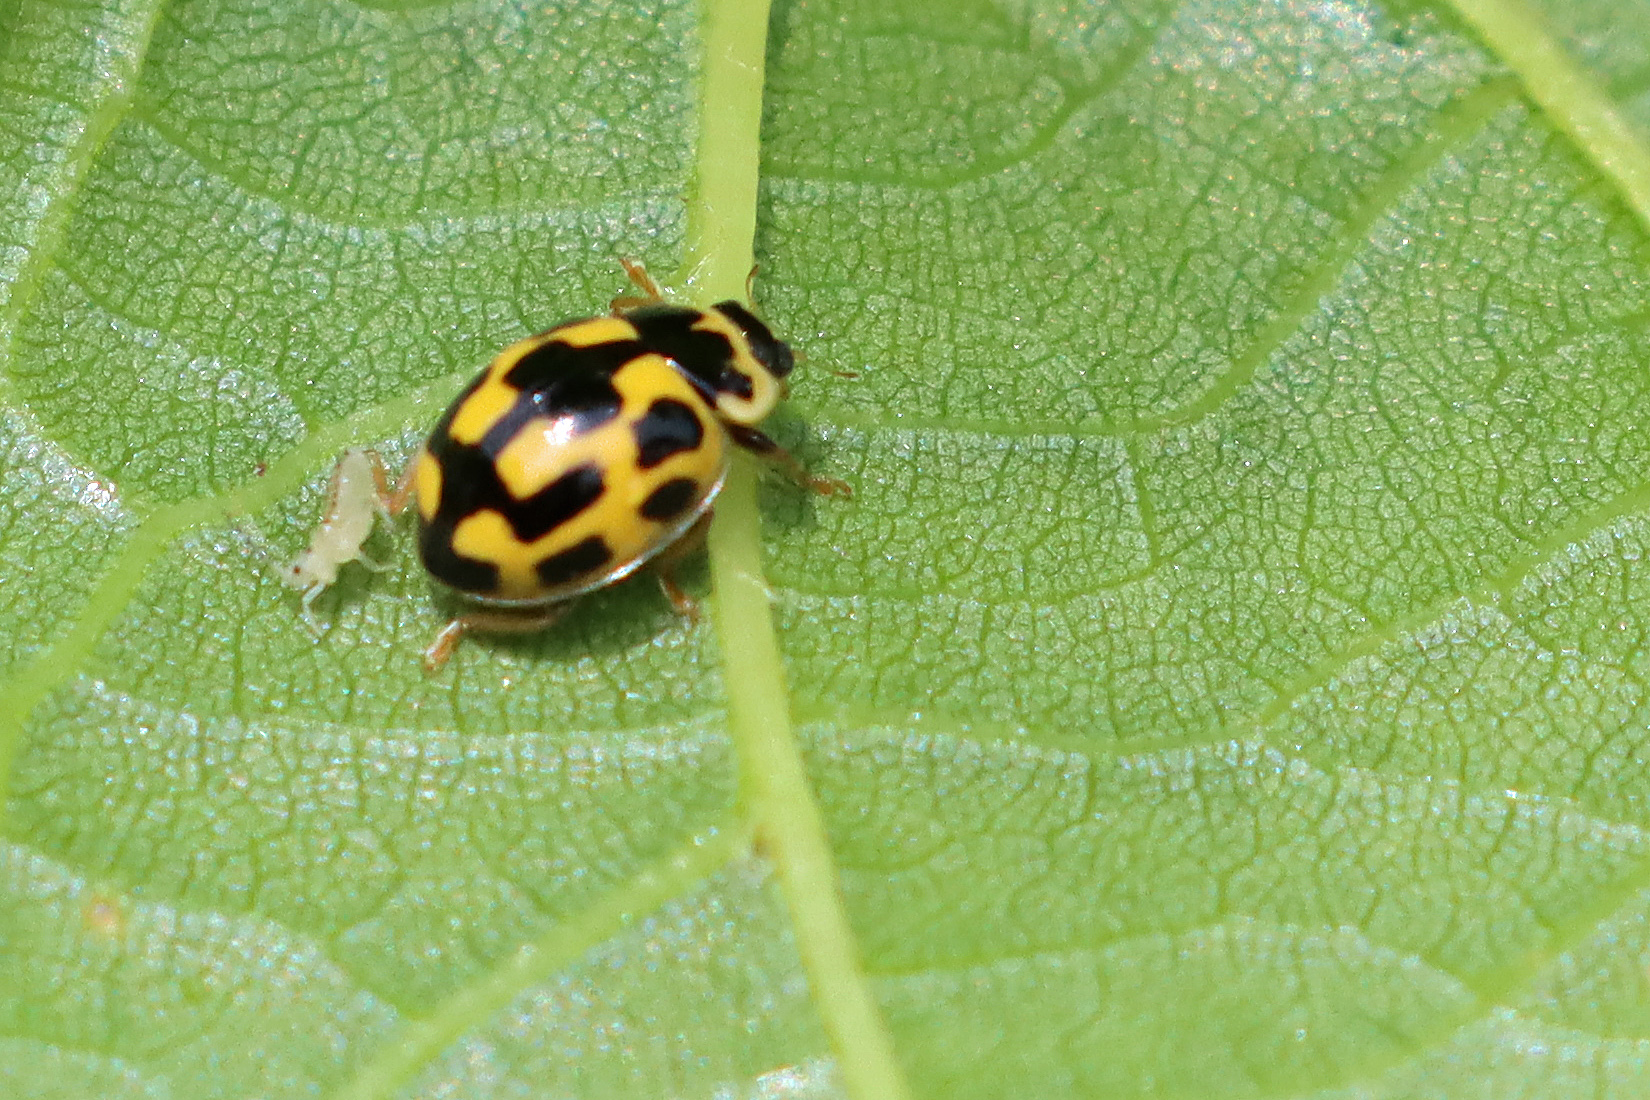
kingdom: Animalia
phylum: Arthropoda
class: Insecta
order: Coleoptera
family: Coccinellidae
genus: Propylaea
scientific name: Propylaea quatuordecimpunctata
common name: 14-spotted ladybird beetle
